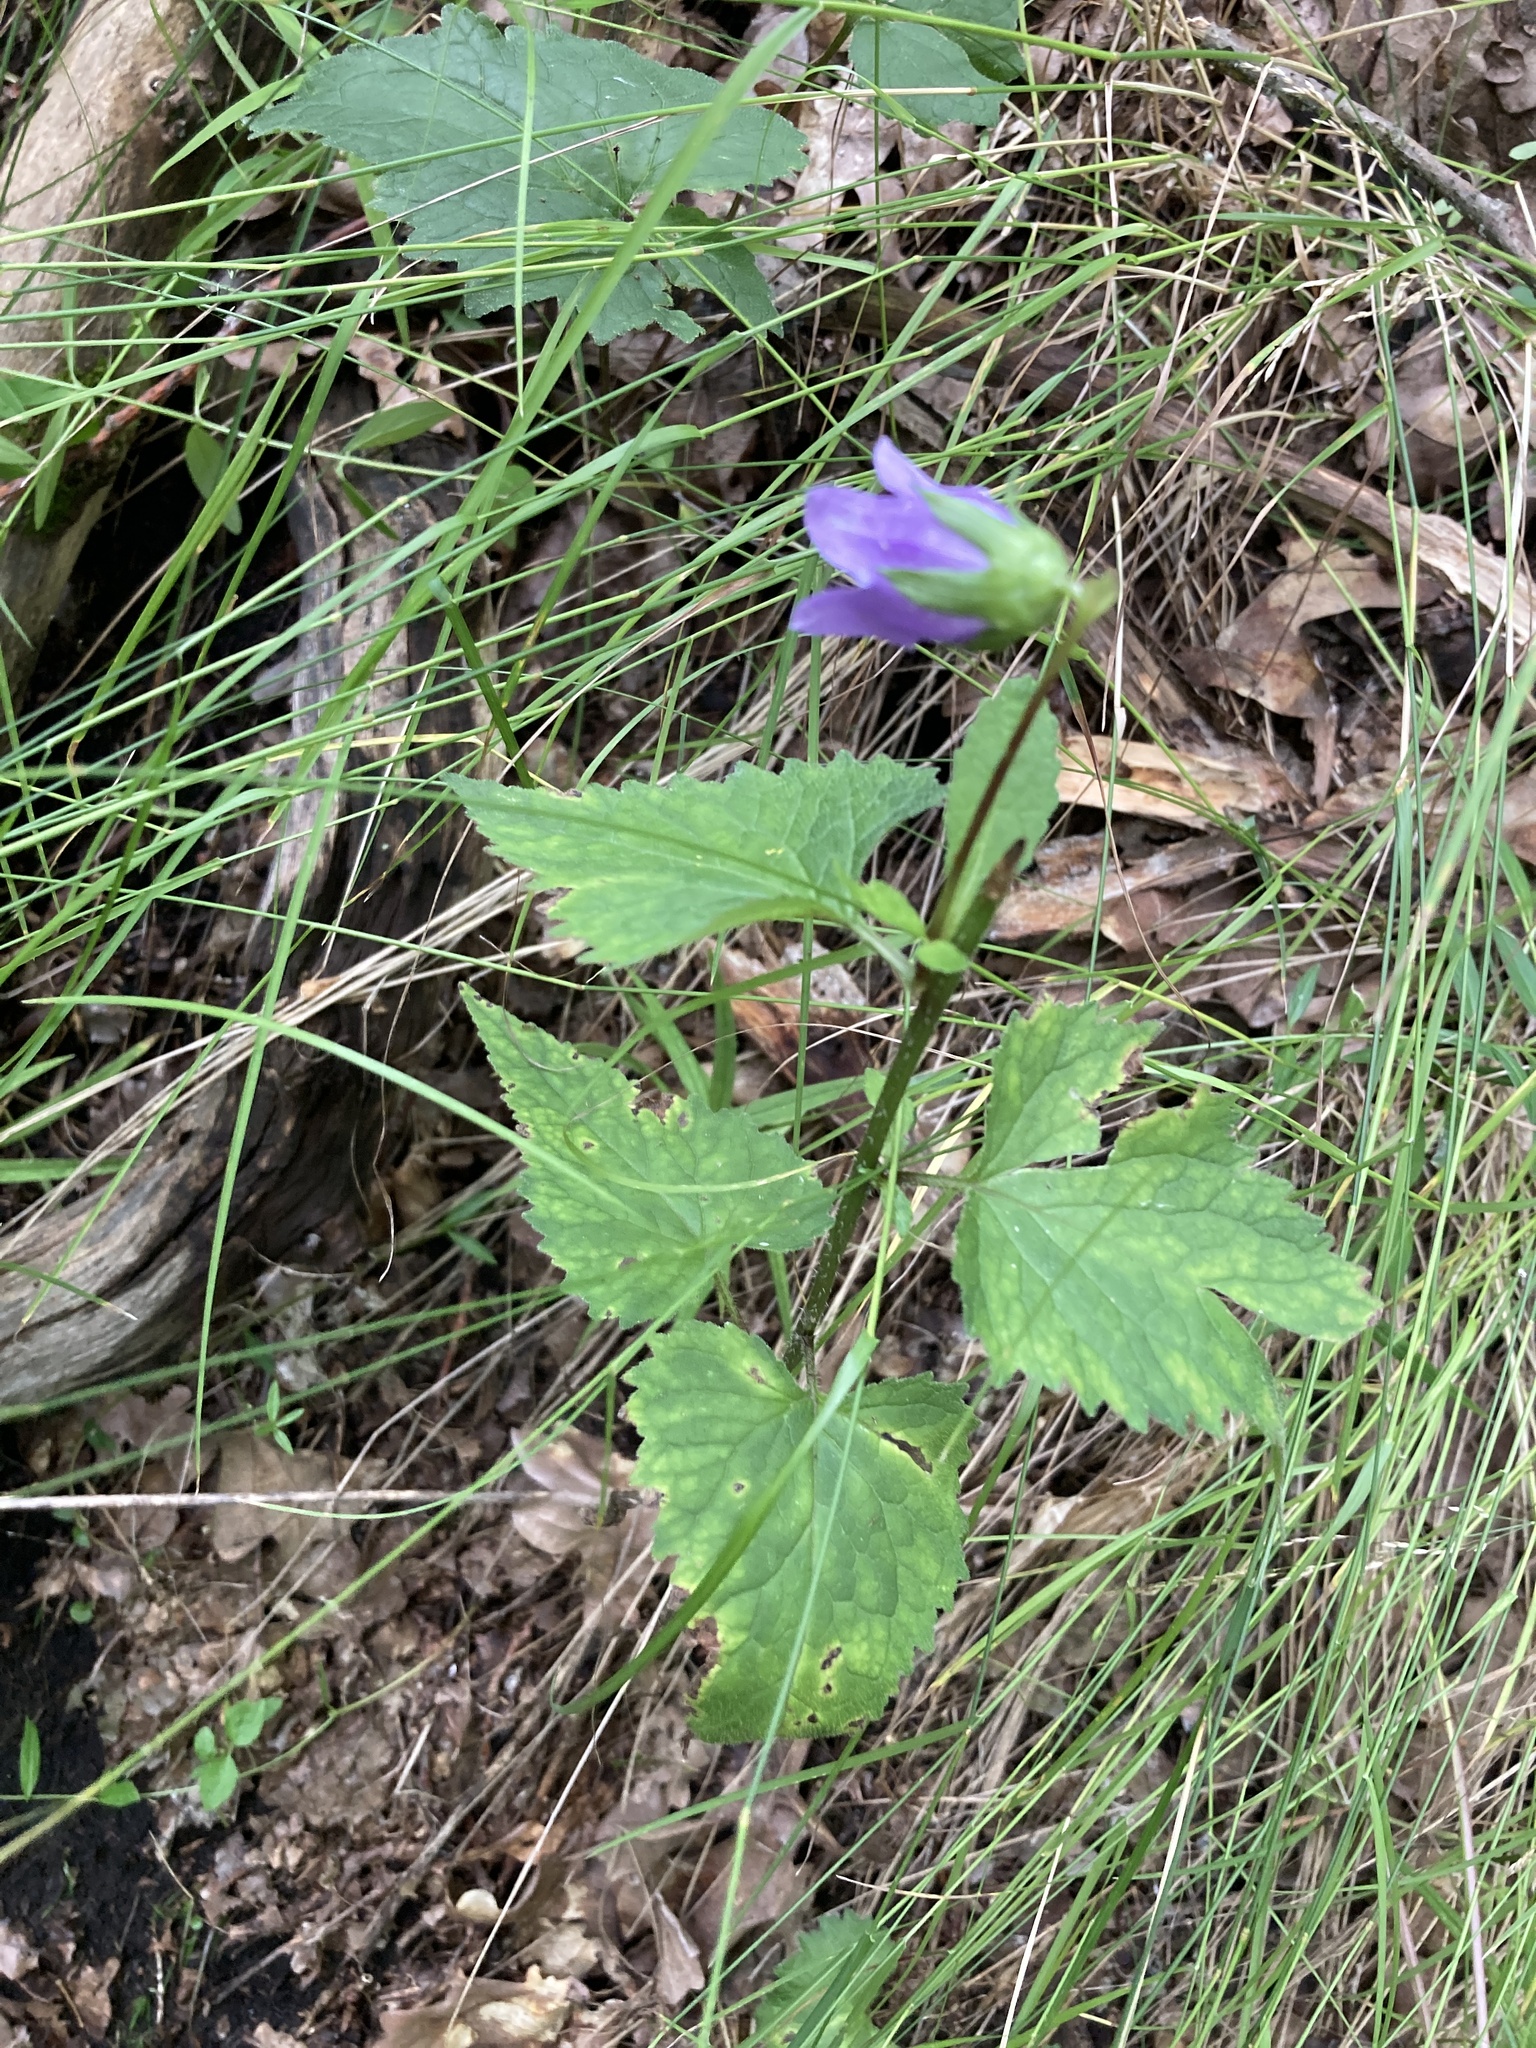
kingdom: Plantae
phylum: Tracheophyta
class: Magnoliopsida
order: Asterales
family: Campanulaceae
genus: Campanula
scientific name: Campanula trachelium
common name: Nettle-leaved bellflower
